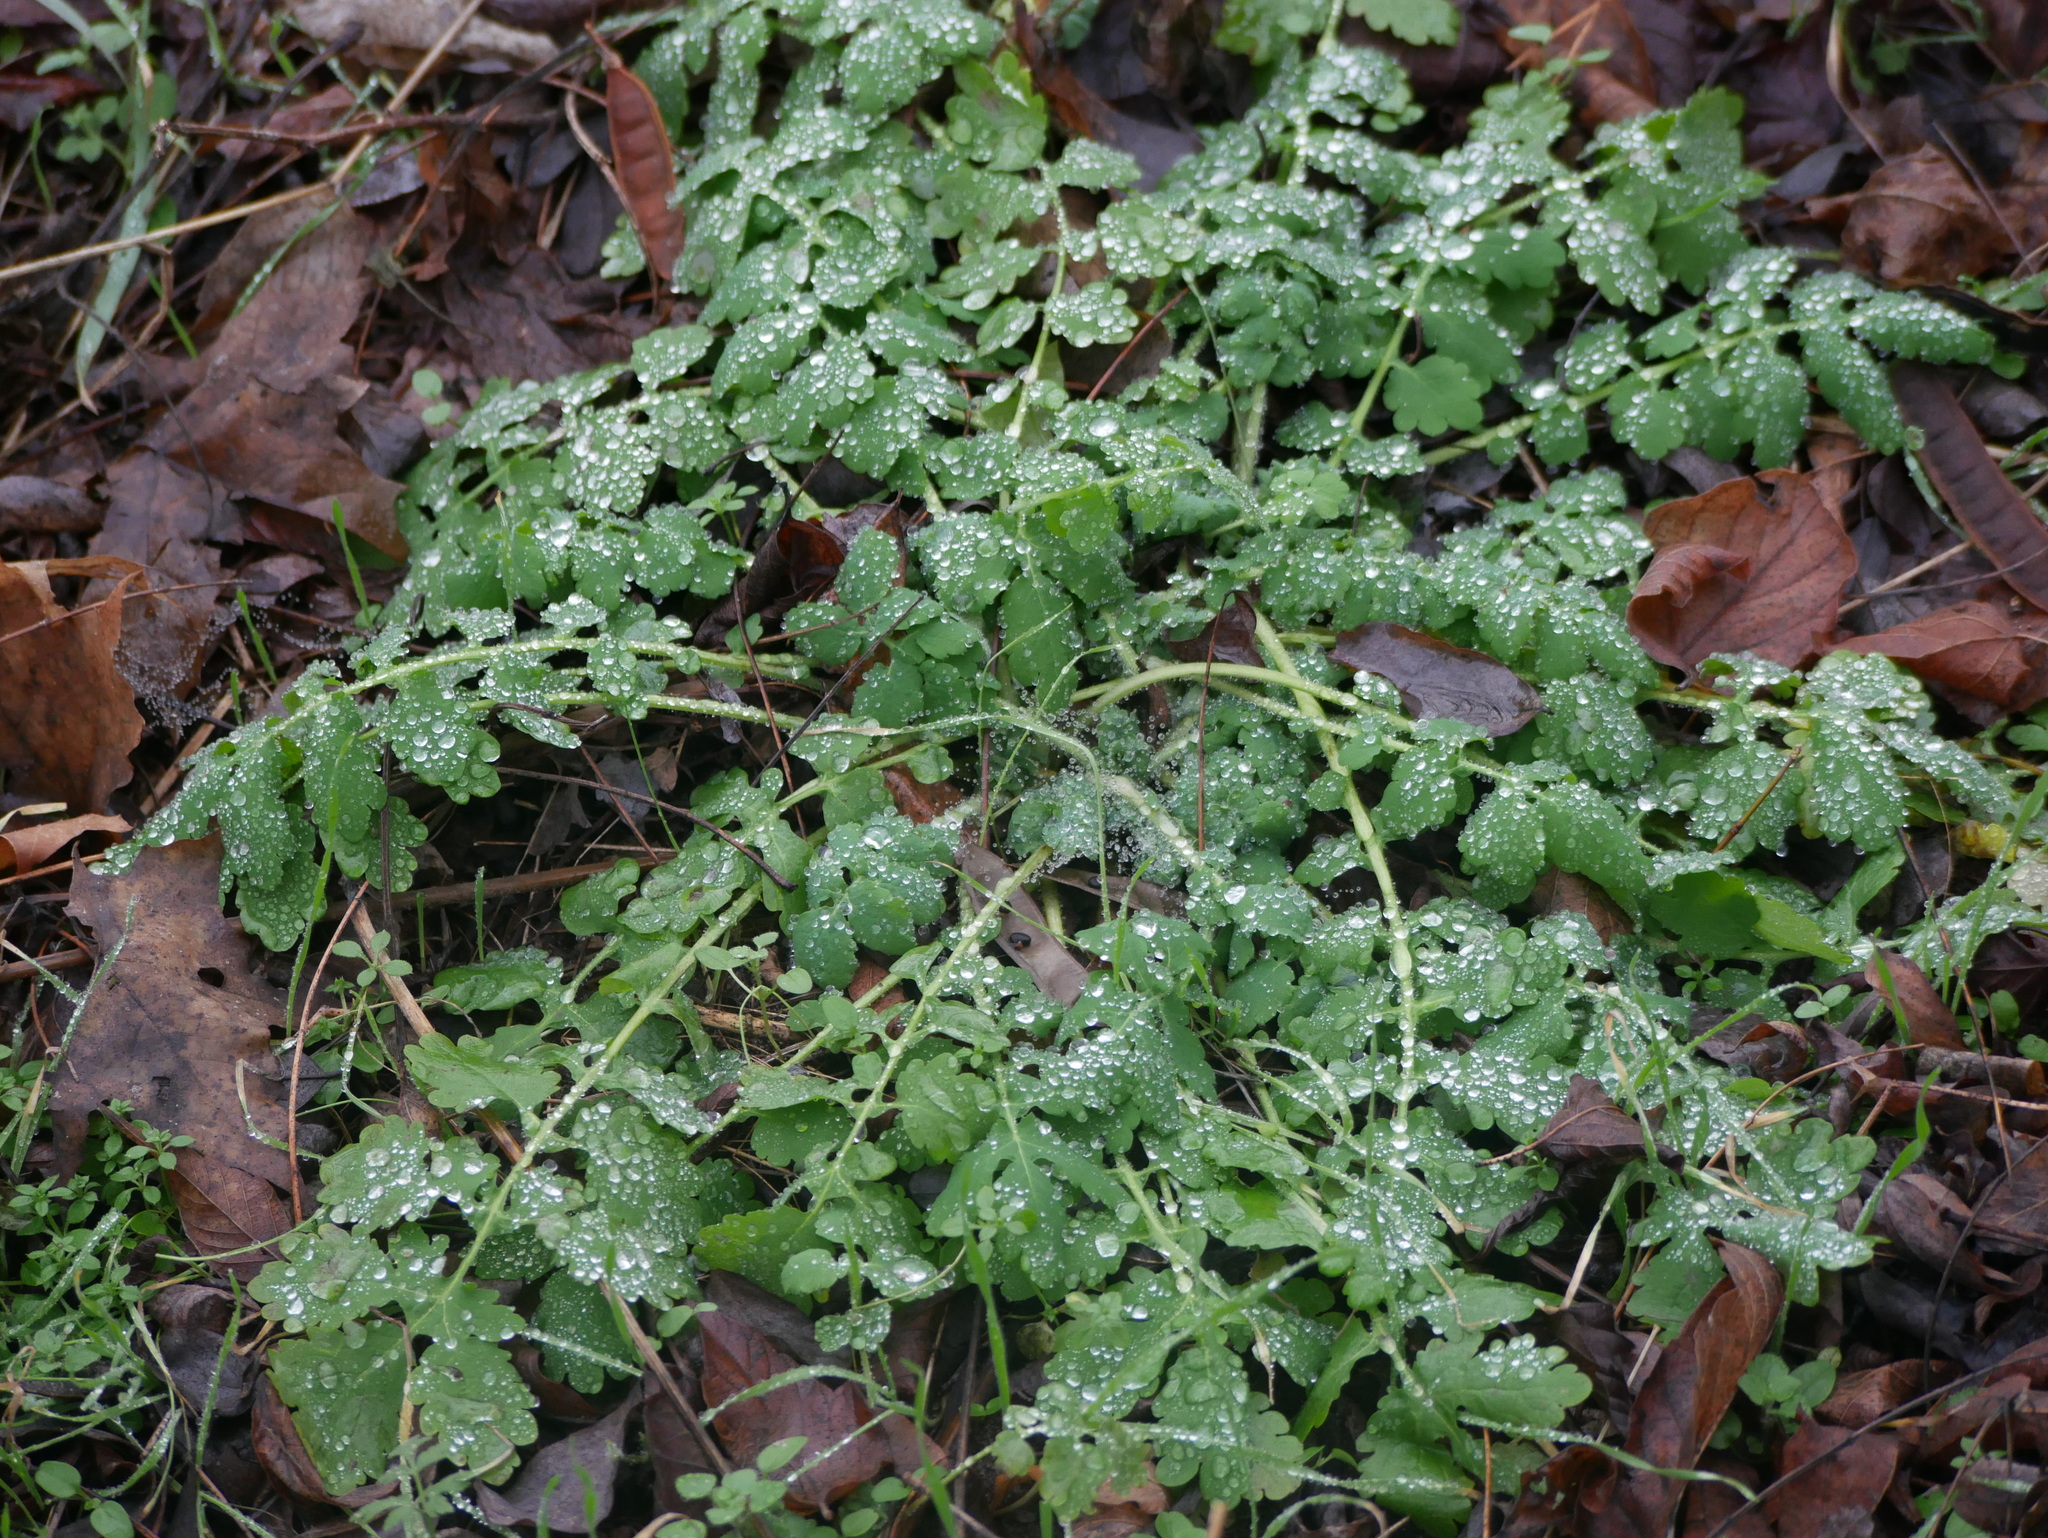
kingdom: Plantae
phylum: Tracheophyta
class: Magnoliopsida
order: Ranunculales
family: Papaveraceae
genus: Chelidonium
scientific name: Chelidonium majus
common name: Greater celandine
